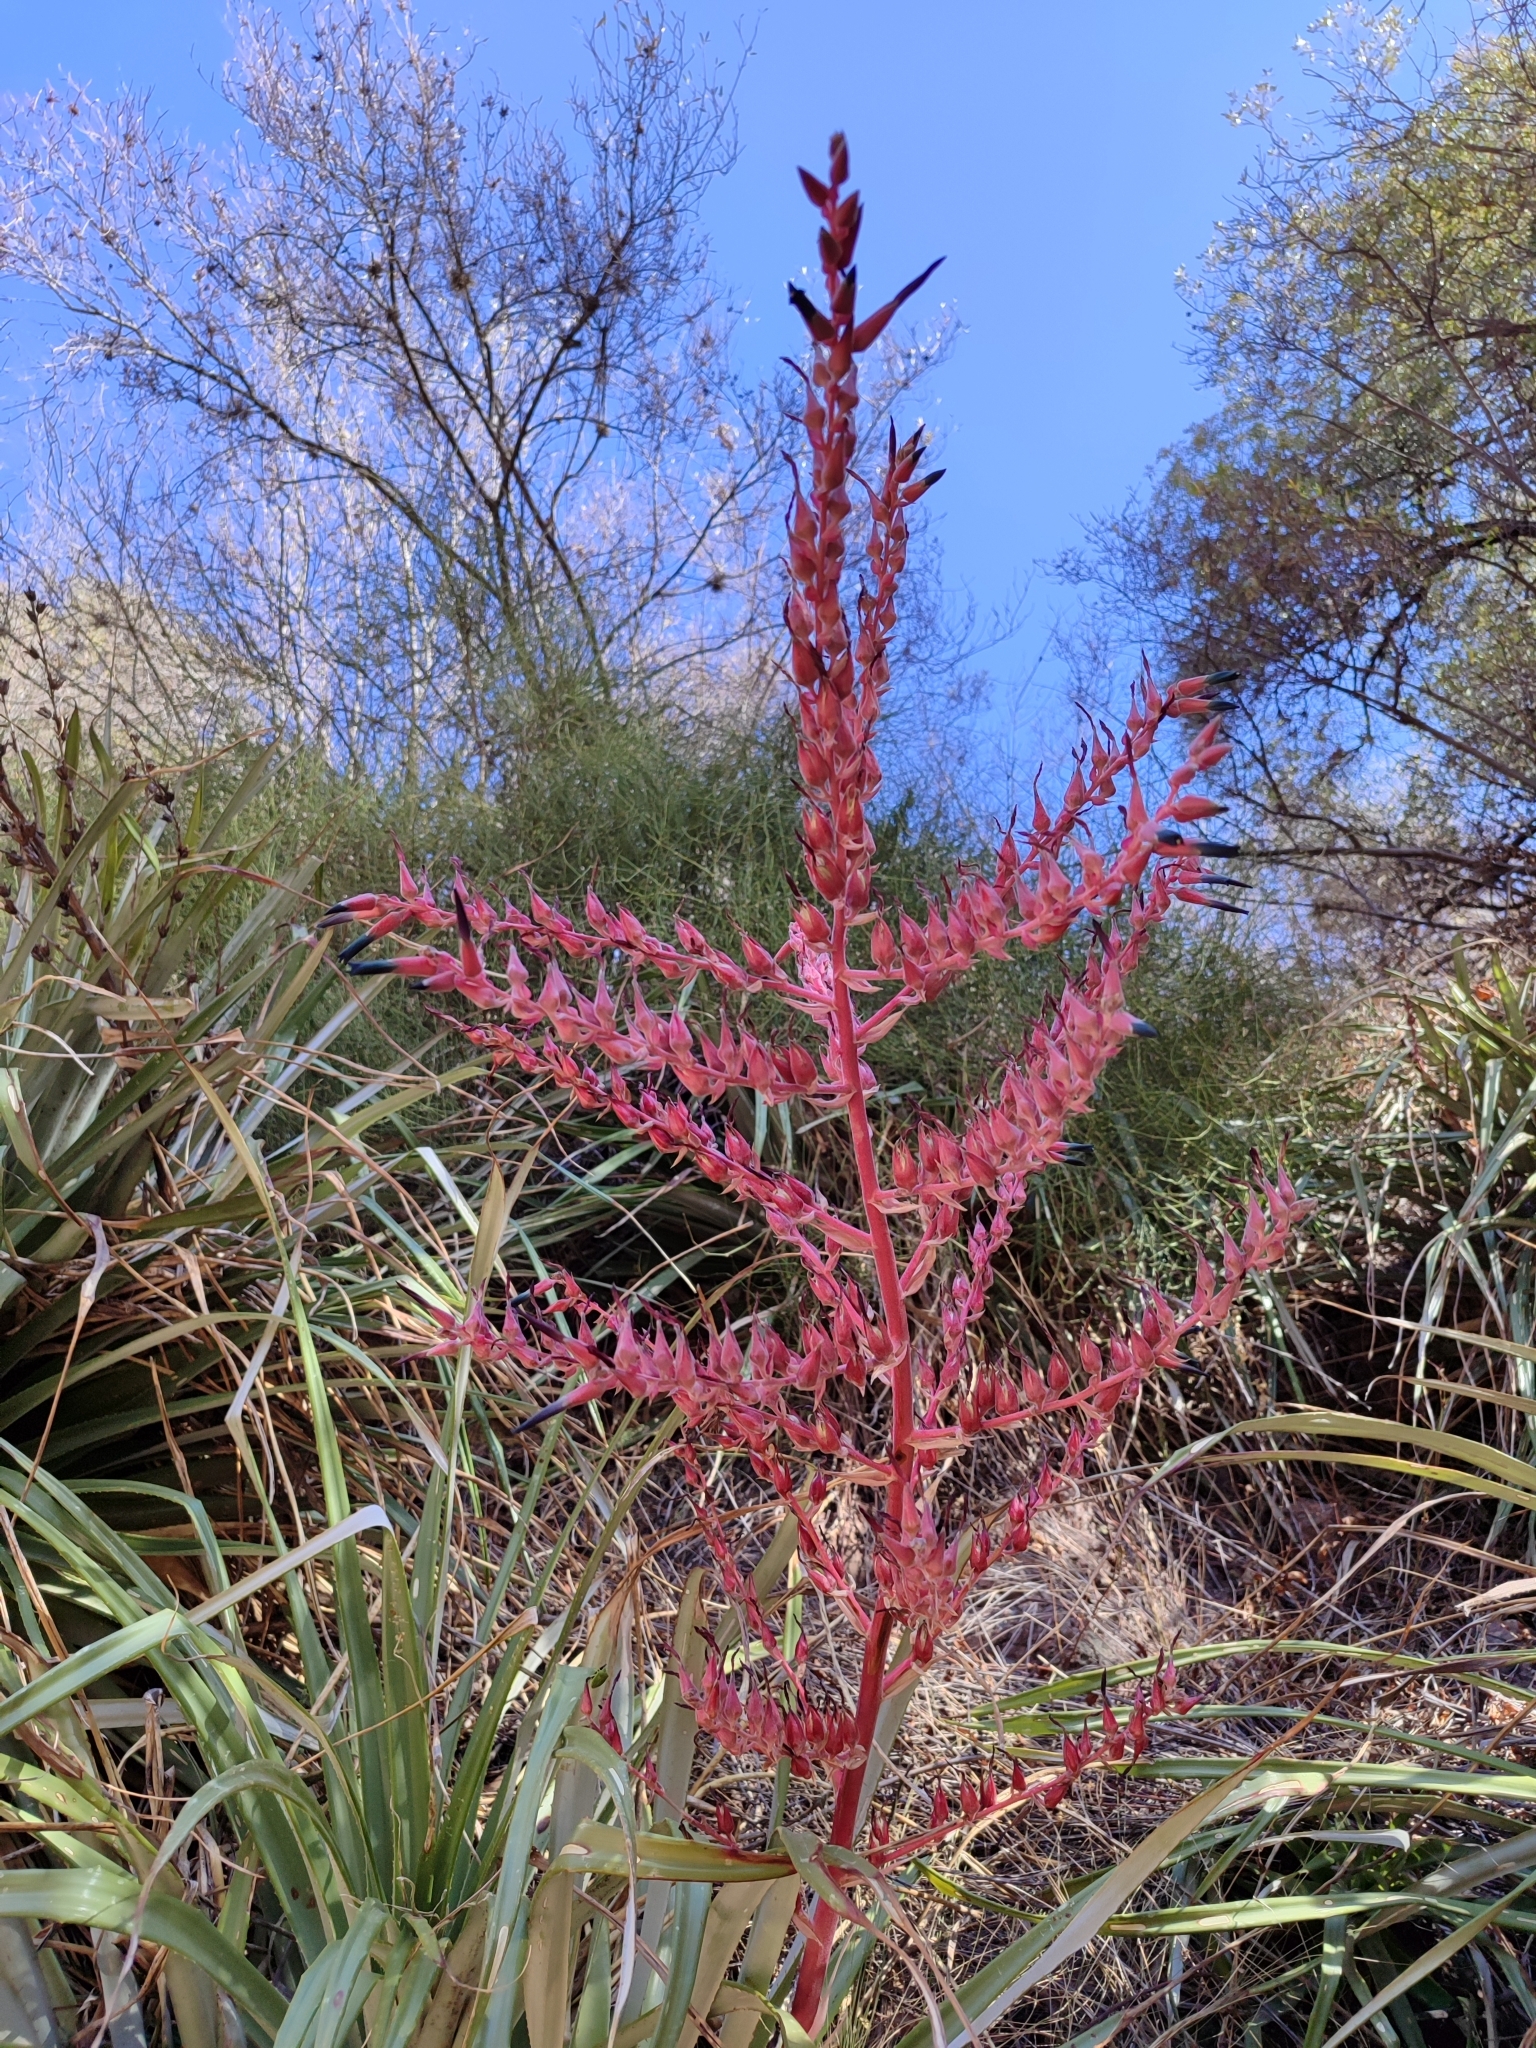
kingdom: Plantae
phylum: Tracheophyta
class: Liliopsida
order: Poales
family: Bromeliaceae
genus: Puya
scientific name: Puya spathacea
